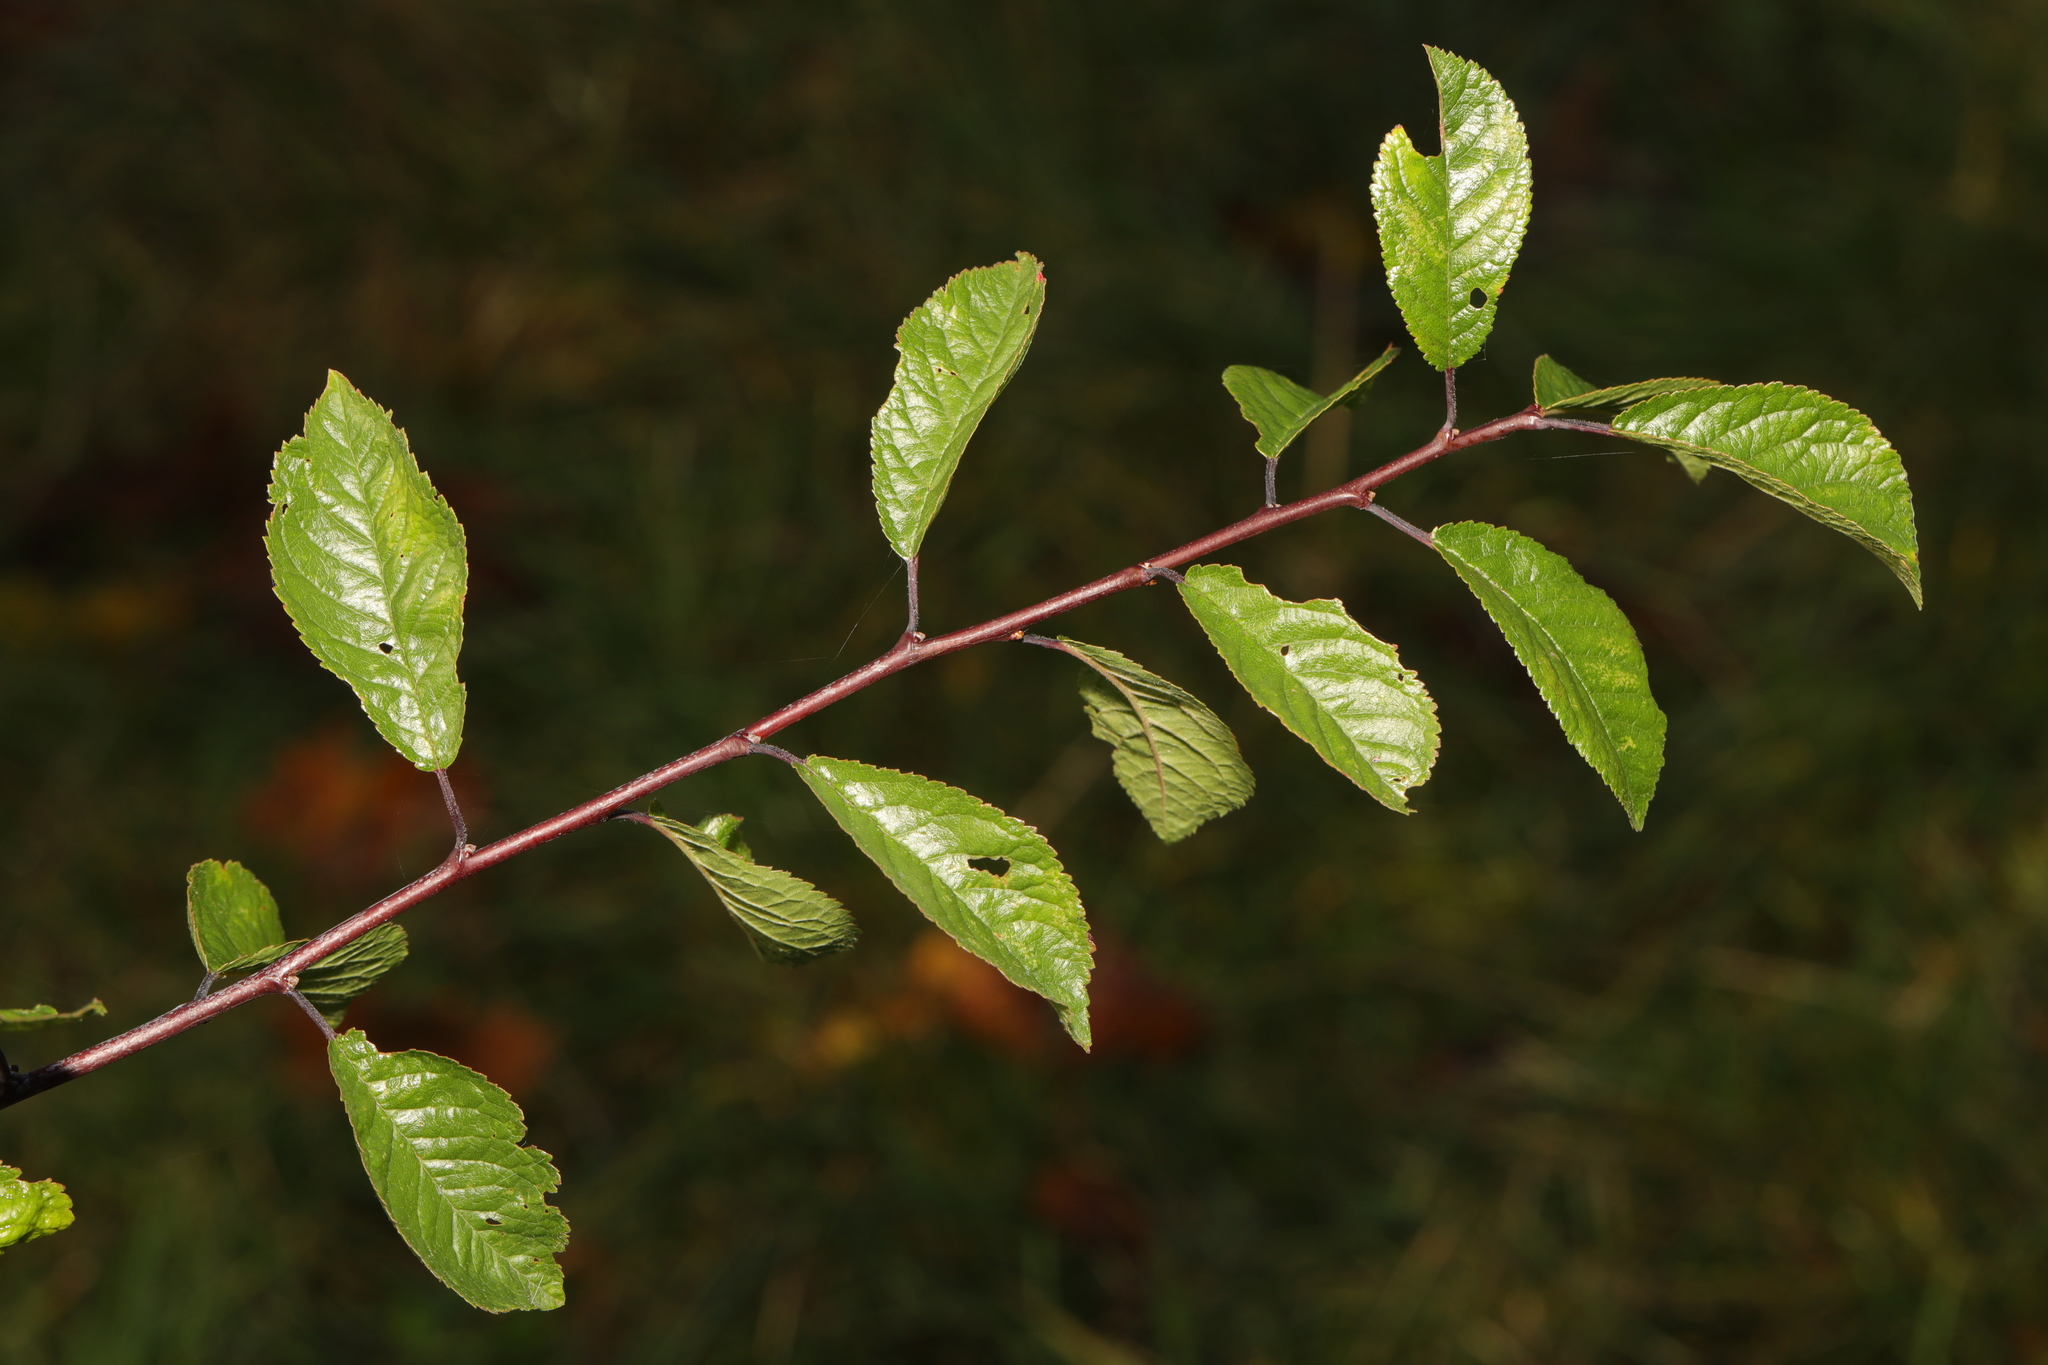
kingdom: Plantae
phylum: Tracheophyta
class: Magnoliopsida
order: Rosales
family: Rosaceae
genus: Prunus
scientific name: Prunus spinosa
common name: Blackthorn
